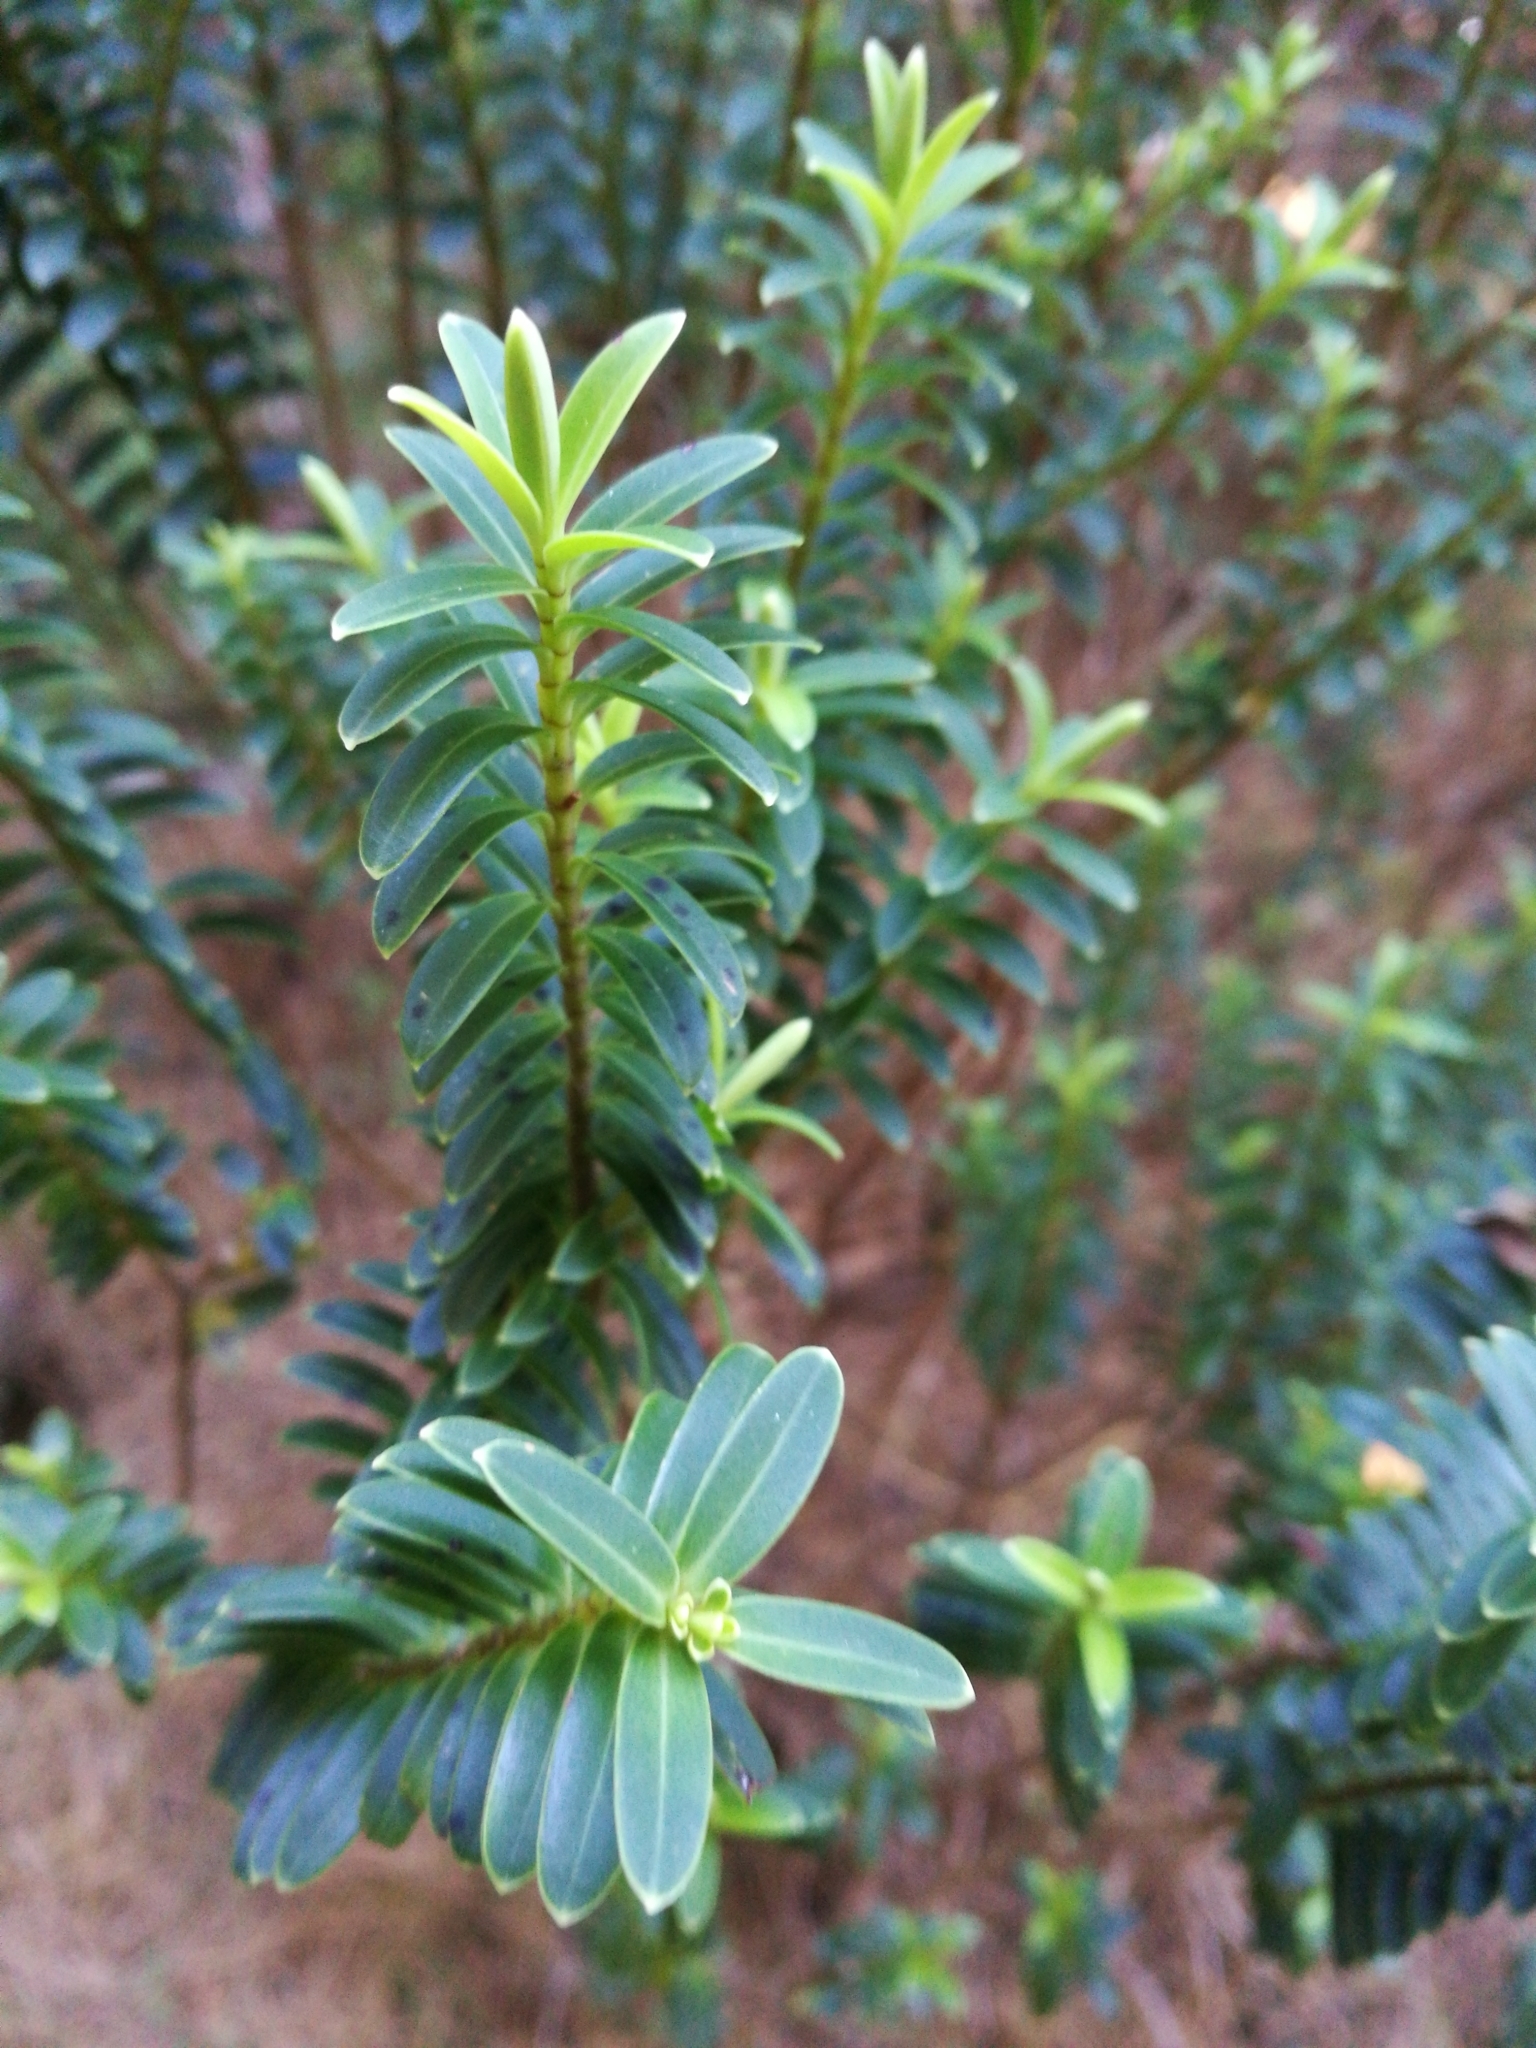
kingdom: Plantae
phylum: Tracheophyta
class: Magnoliopsida
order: Lamiales
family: Plantaginaceae
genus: Veronica
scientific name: Veronica odora
